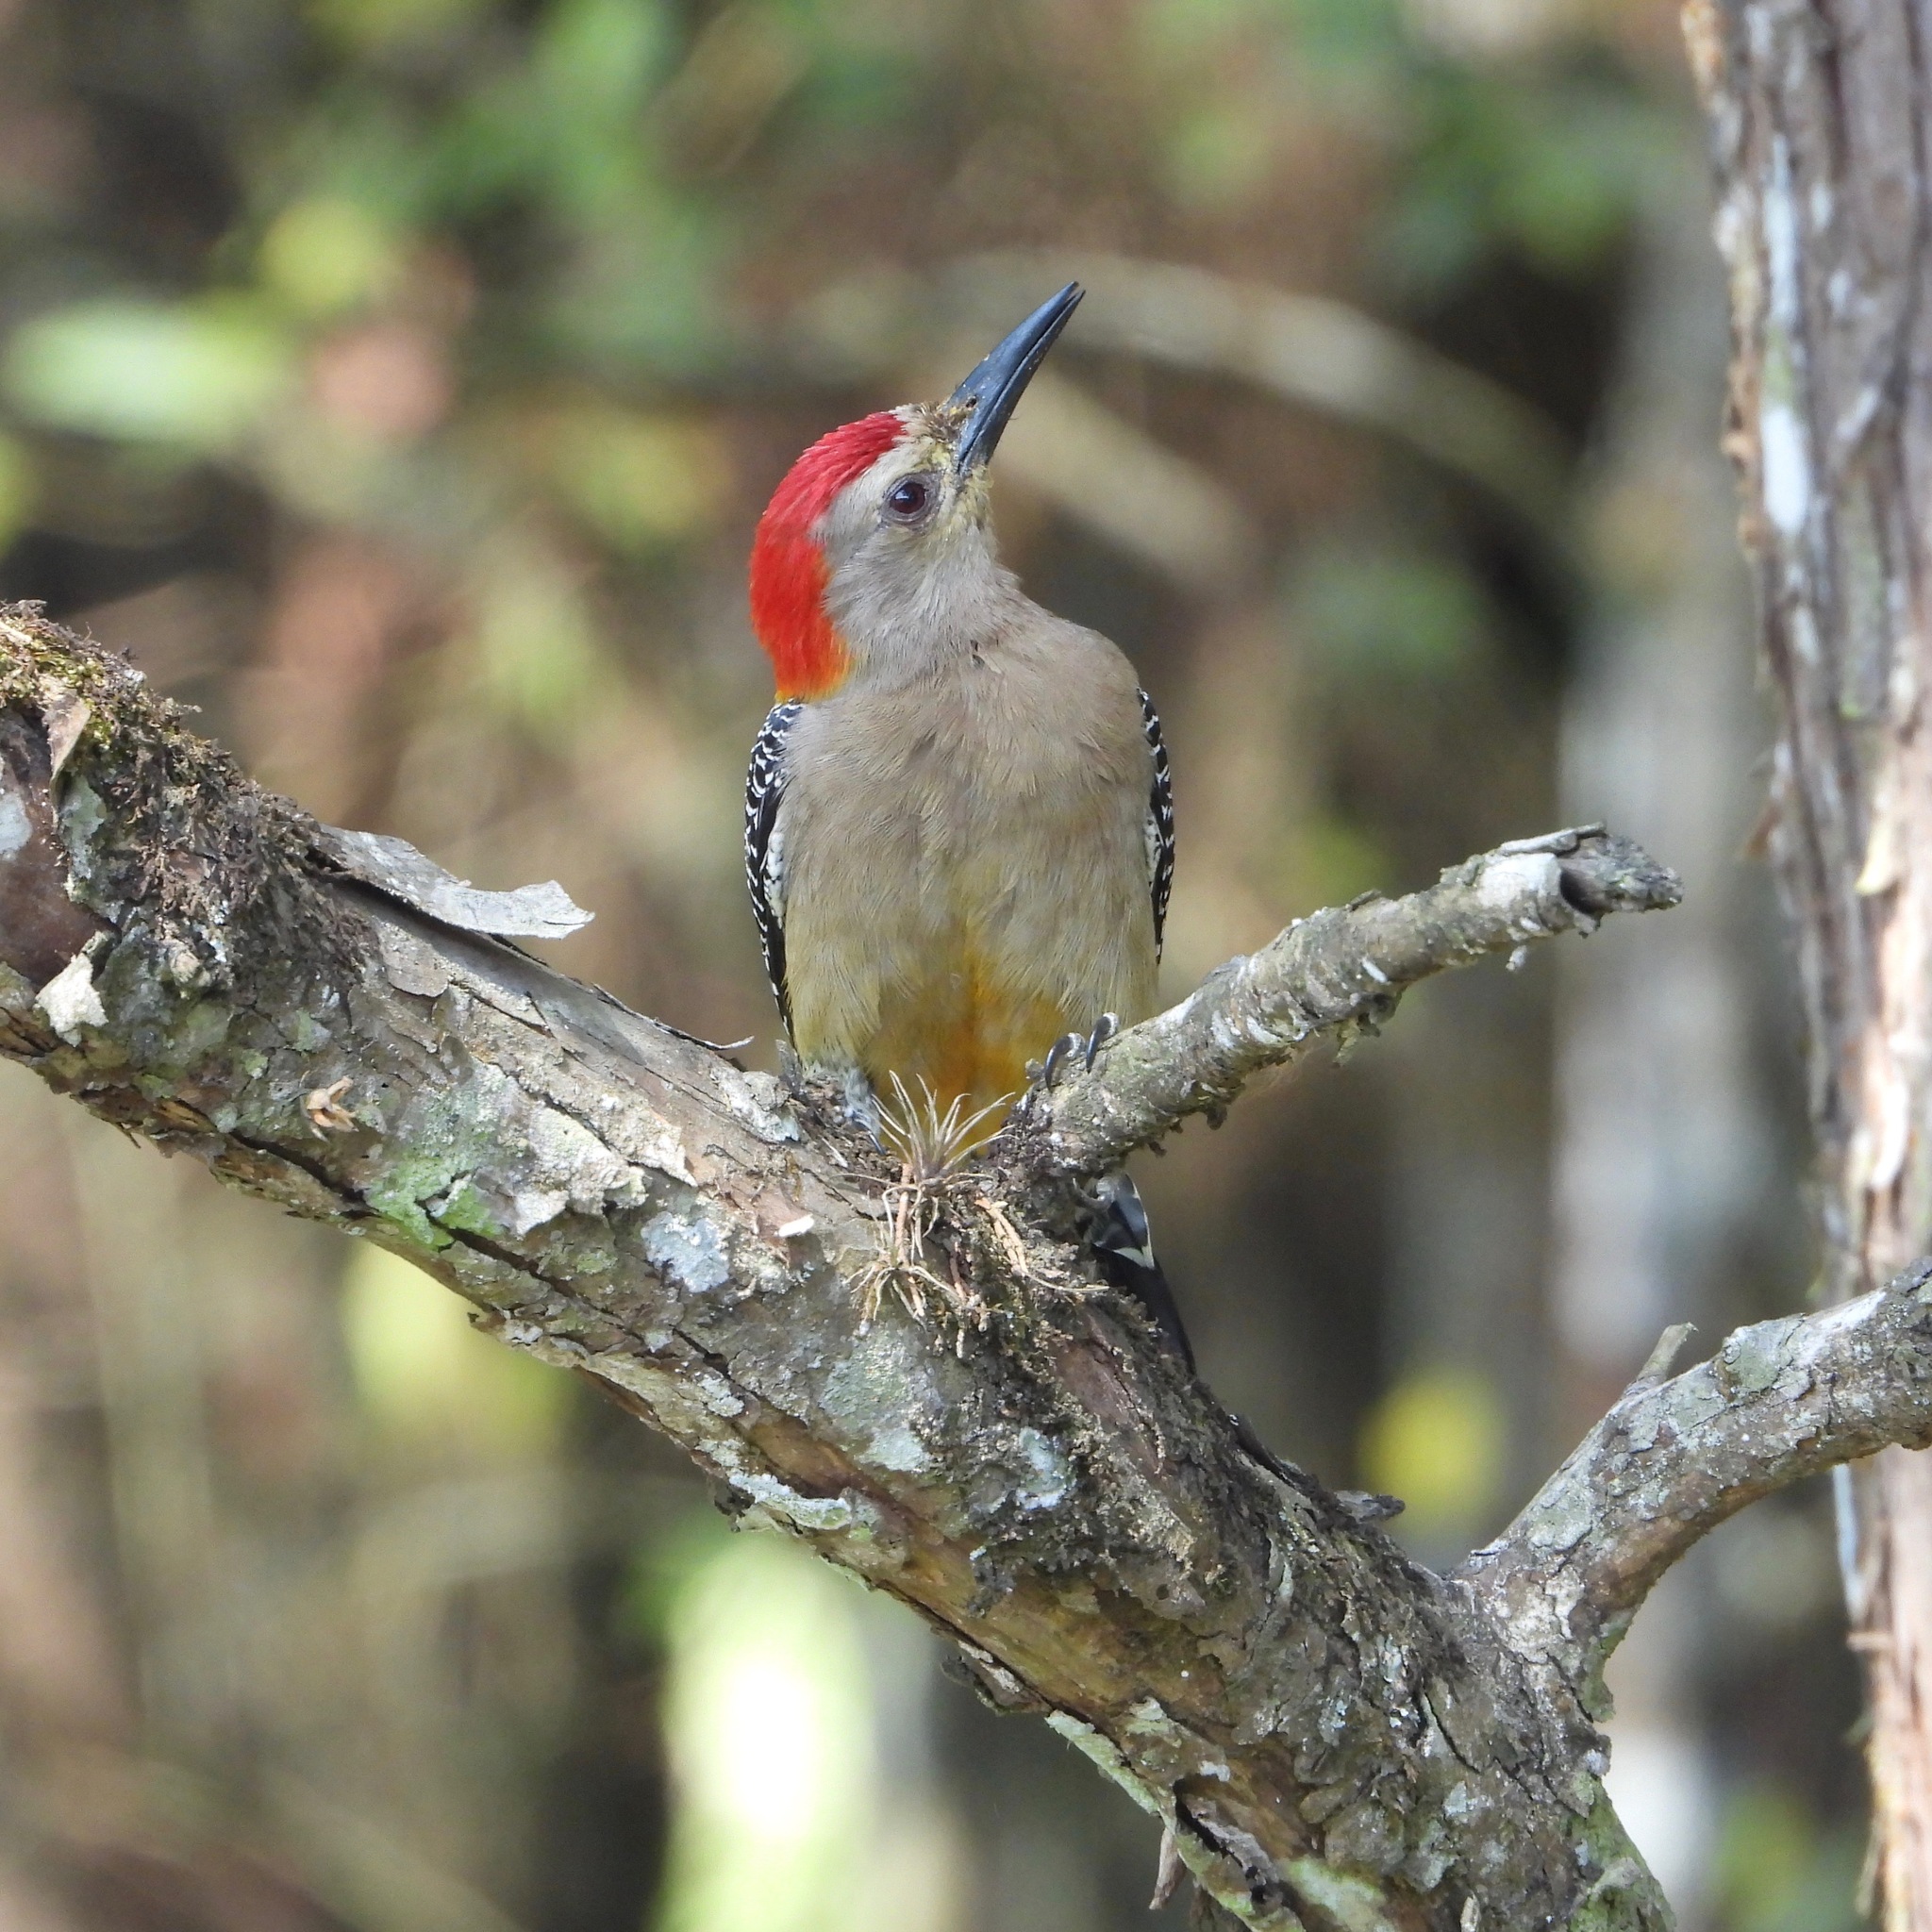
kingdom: Animalia
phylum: Chordata
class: Aves
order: Piciformes
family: Picidae
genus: Melanerpes
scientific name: Melanerpes santacruzi
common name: Velasquez's woodpecker
